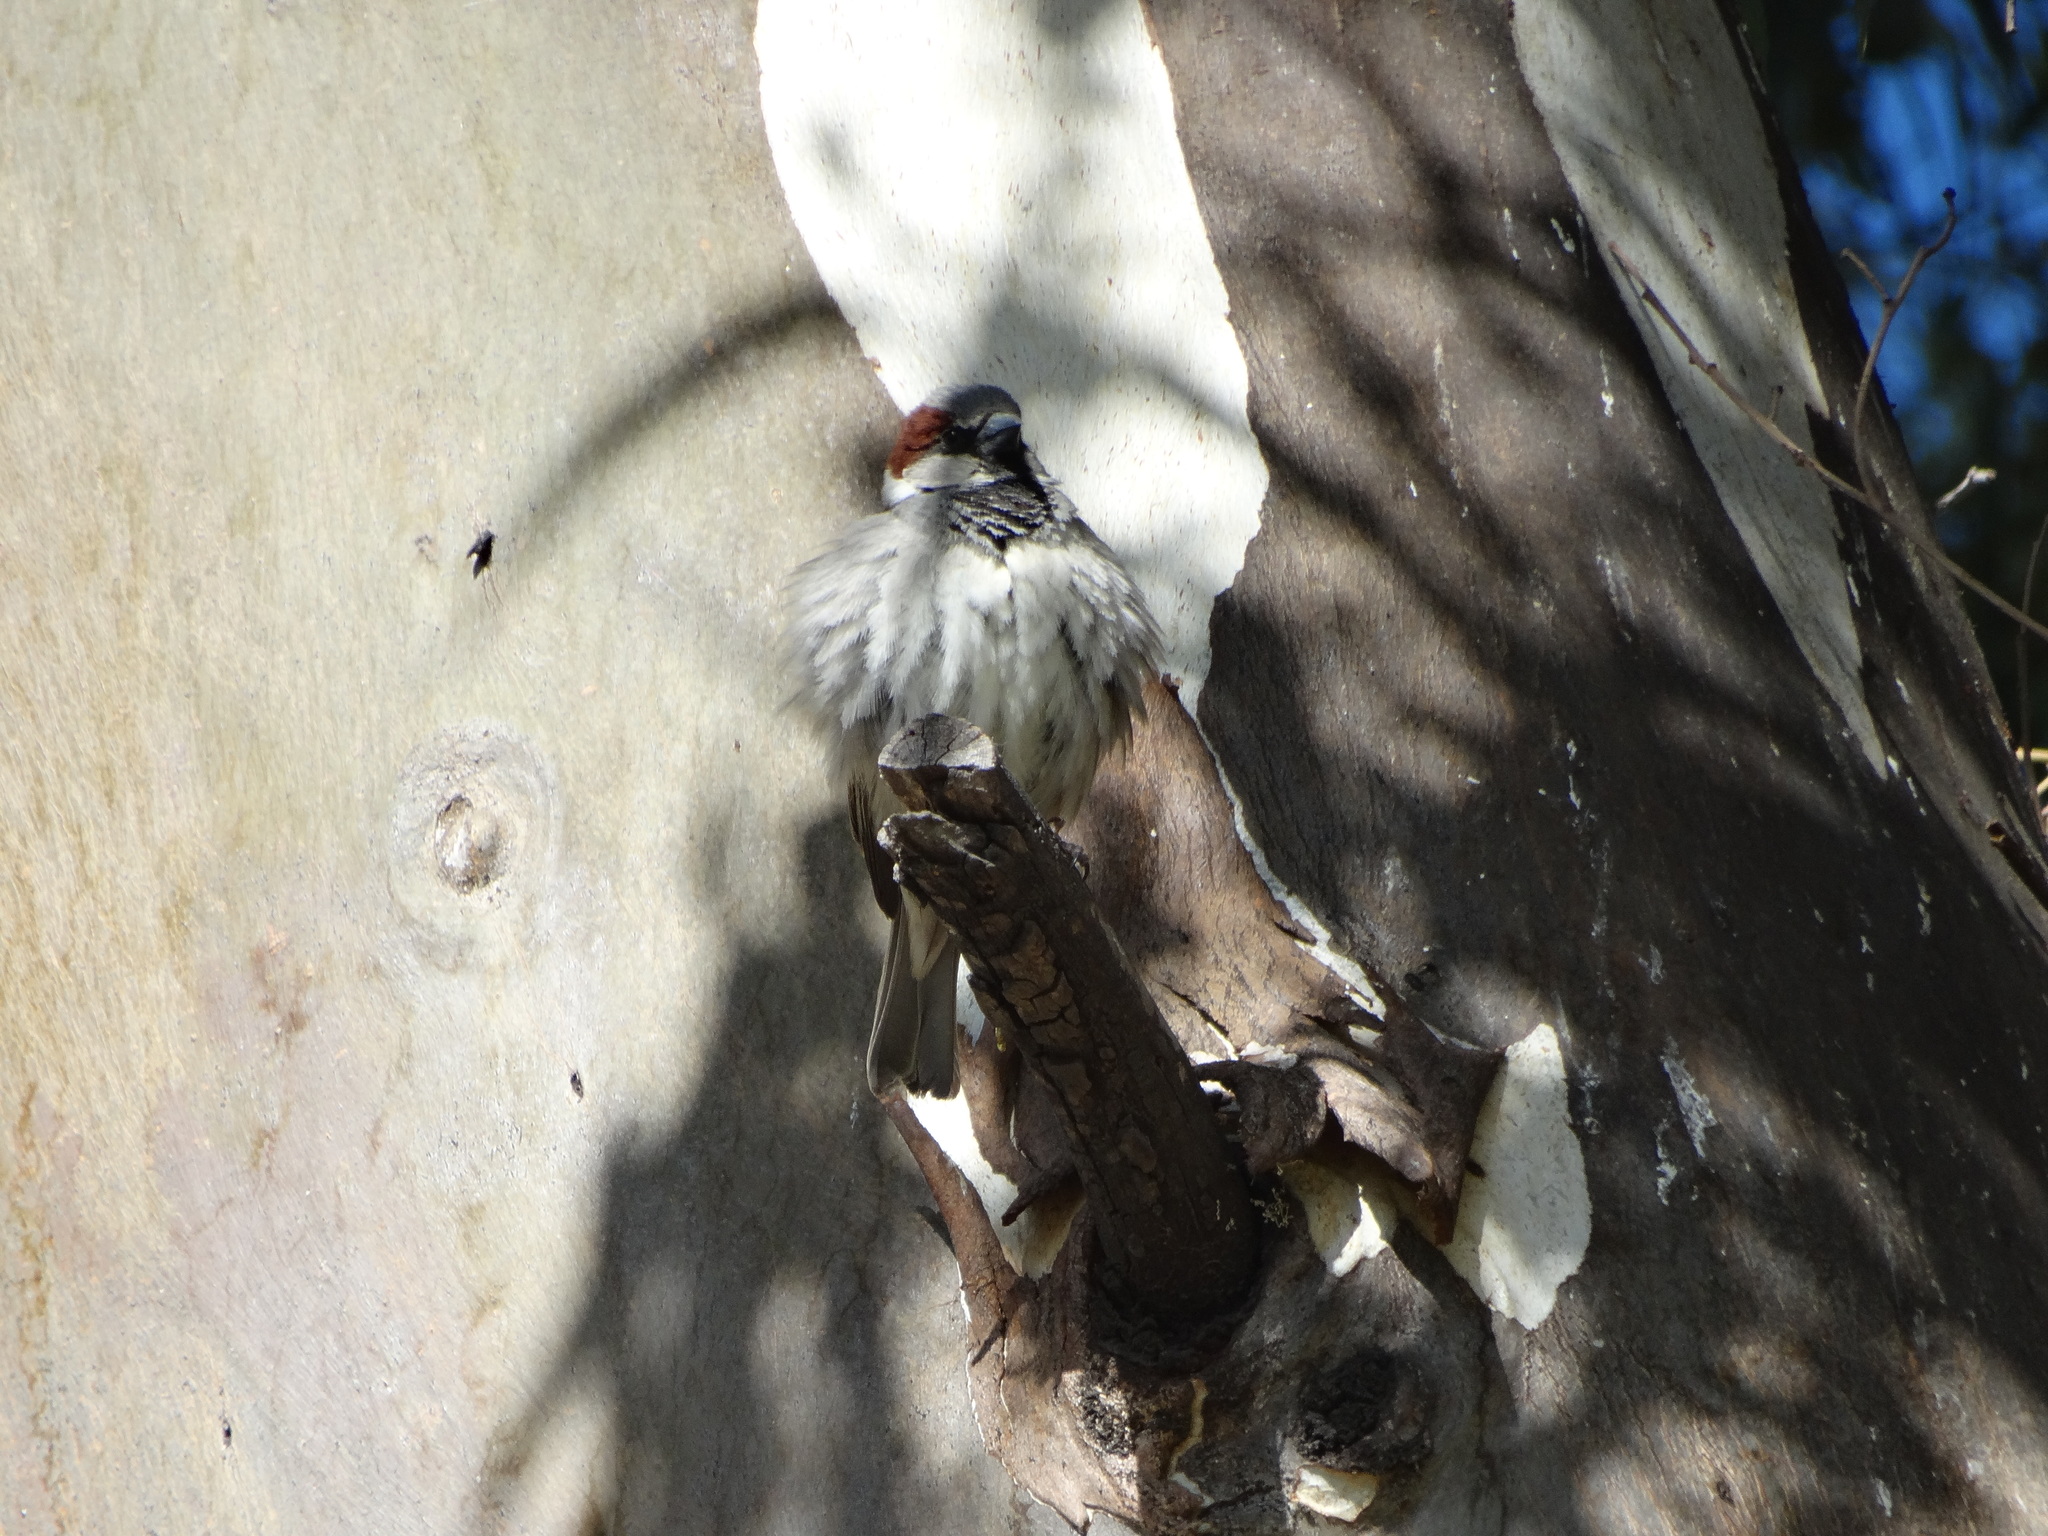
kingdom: Animalia
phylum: Chordata
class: Aves
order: Passeriformes
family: Passeridae
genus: Passer
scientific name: Passer domesticus
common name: House sparrow
